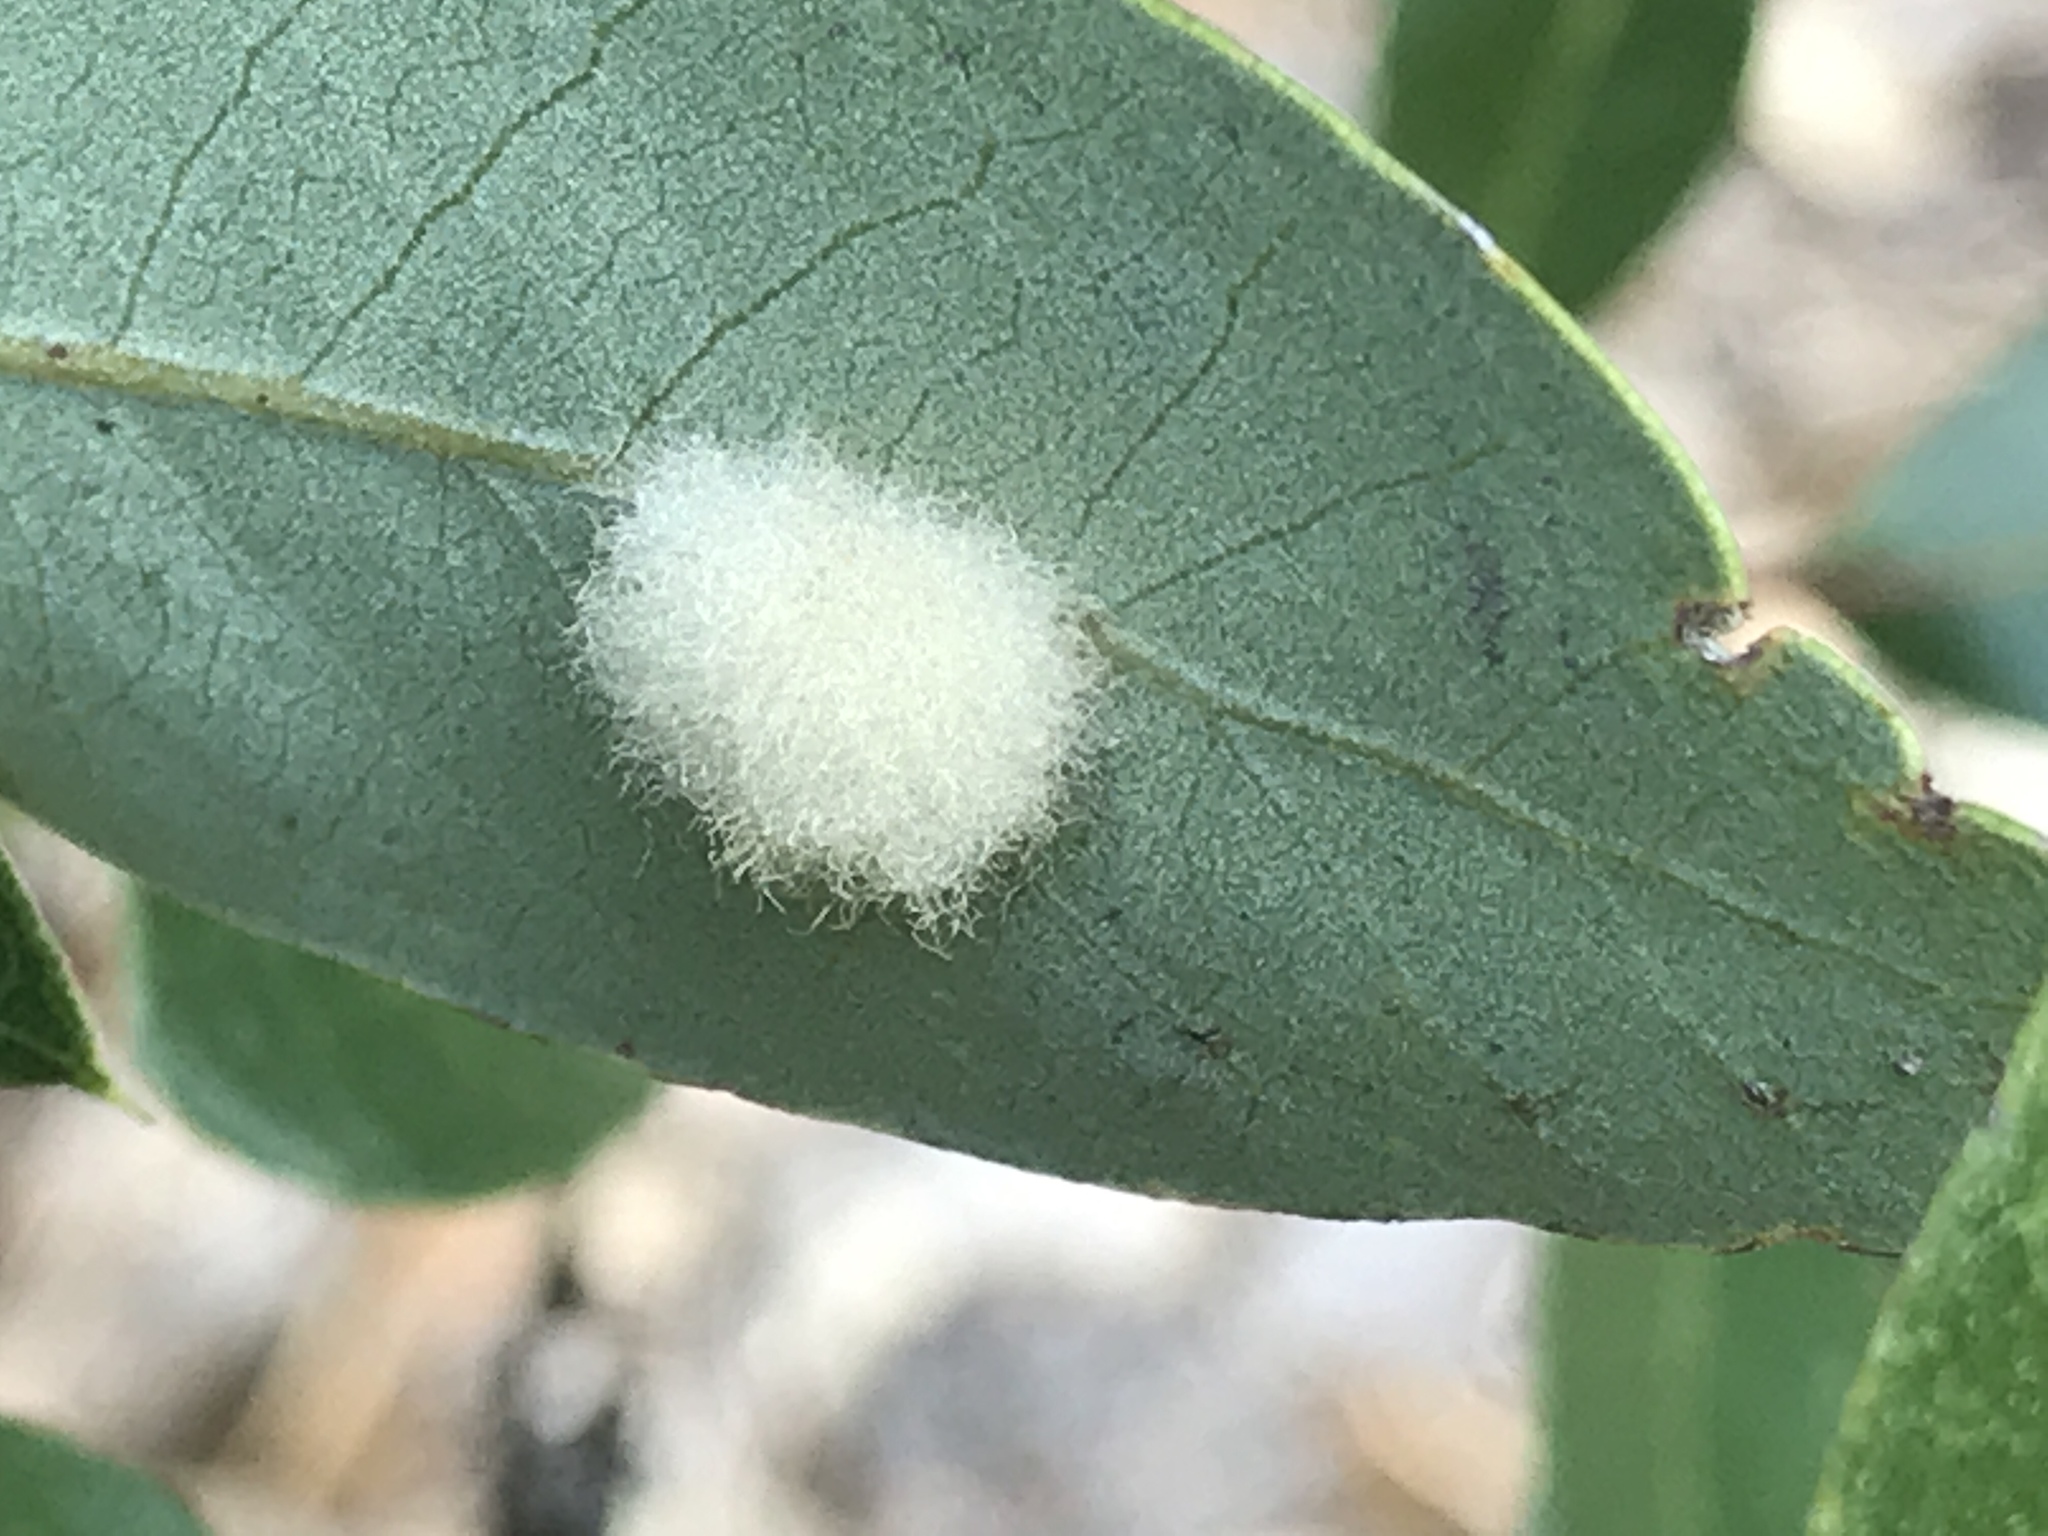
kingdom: Animalia
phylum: Arthropoda
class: Insecta
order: Hymenoptera
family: Cynipidae
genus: Andricus
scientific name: Andricus Druon quercuslanigerum
